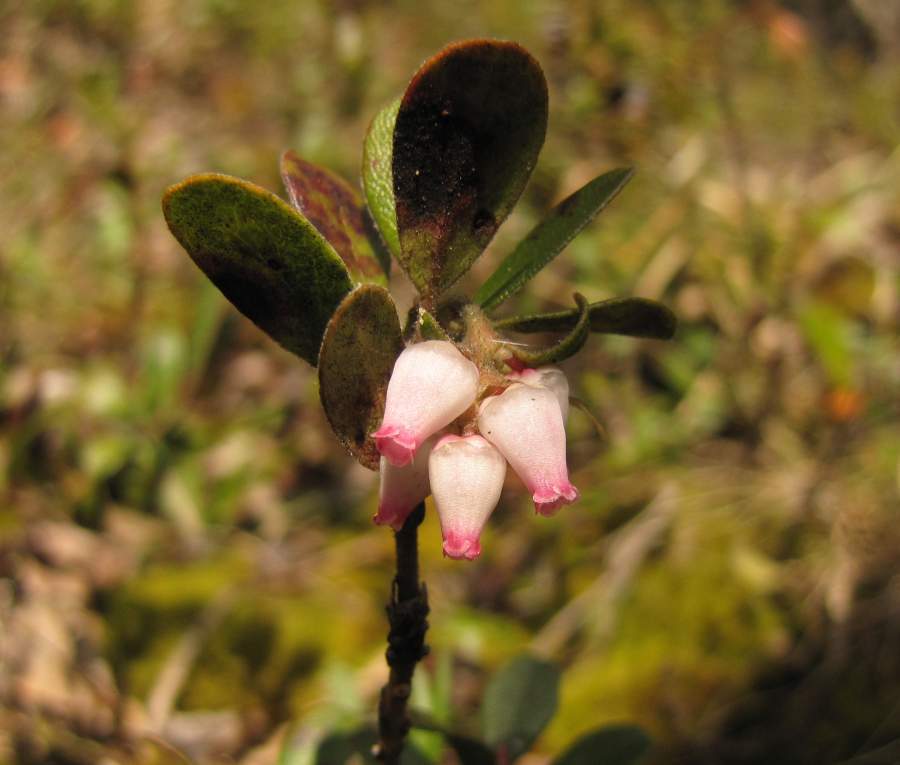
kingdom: Plantae
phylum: Tracheophyta
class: Magnoliopsida
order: Ericales
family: Ericaceae
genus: Arctostaphylos
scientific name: Arctostaphylos uva-ursi
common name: Bearberry
